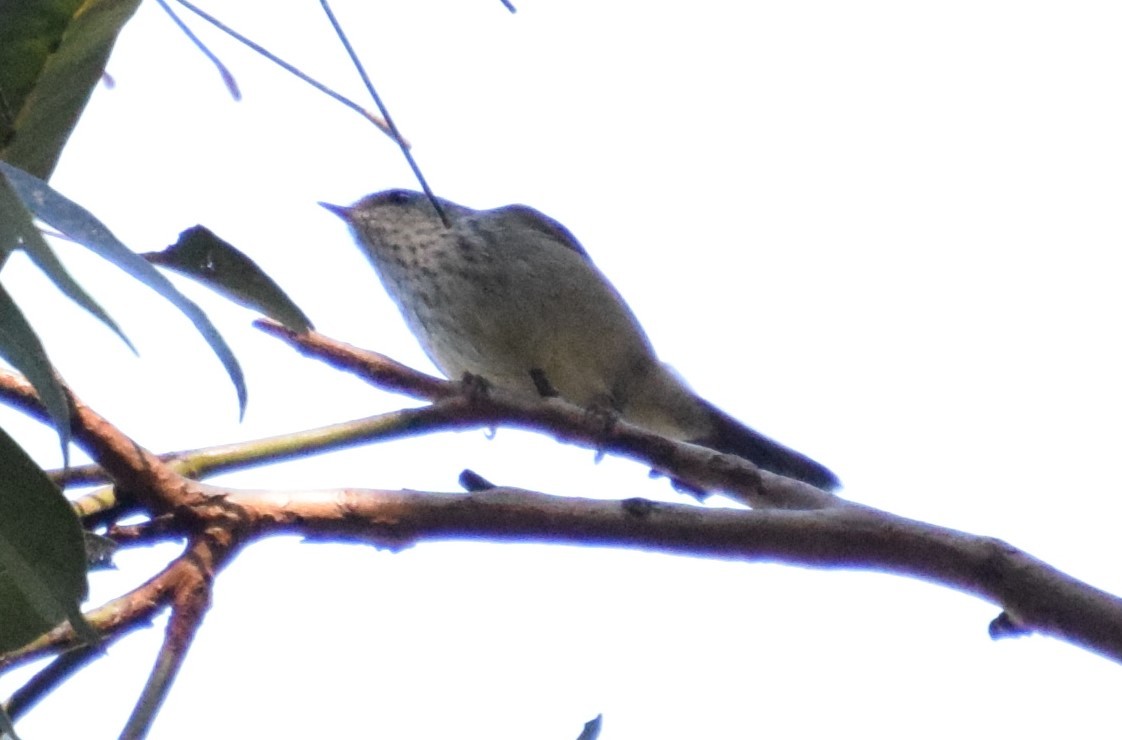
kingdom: Animalia
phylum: Chordata
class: Aves
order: Passeriformes
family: Acanthizidae
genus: Acanthiza
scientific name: Acanthiza pusilla
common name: Brown thornbill
